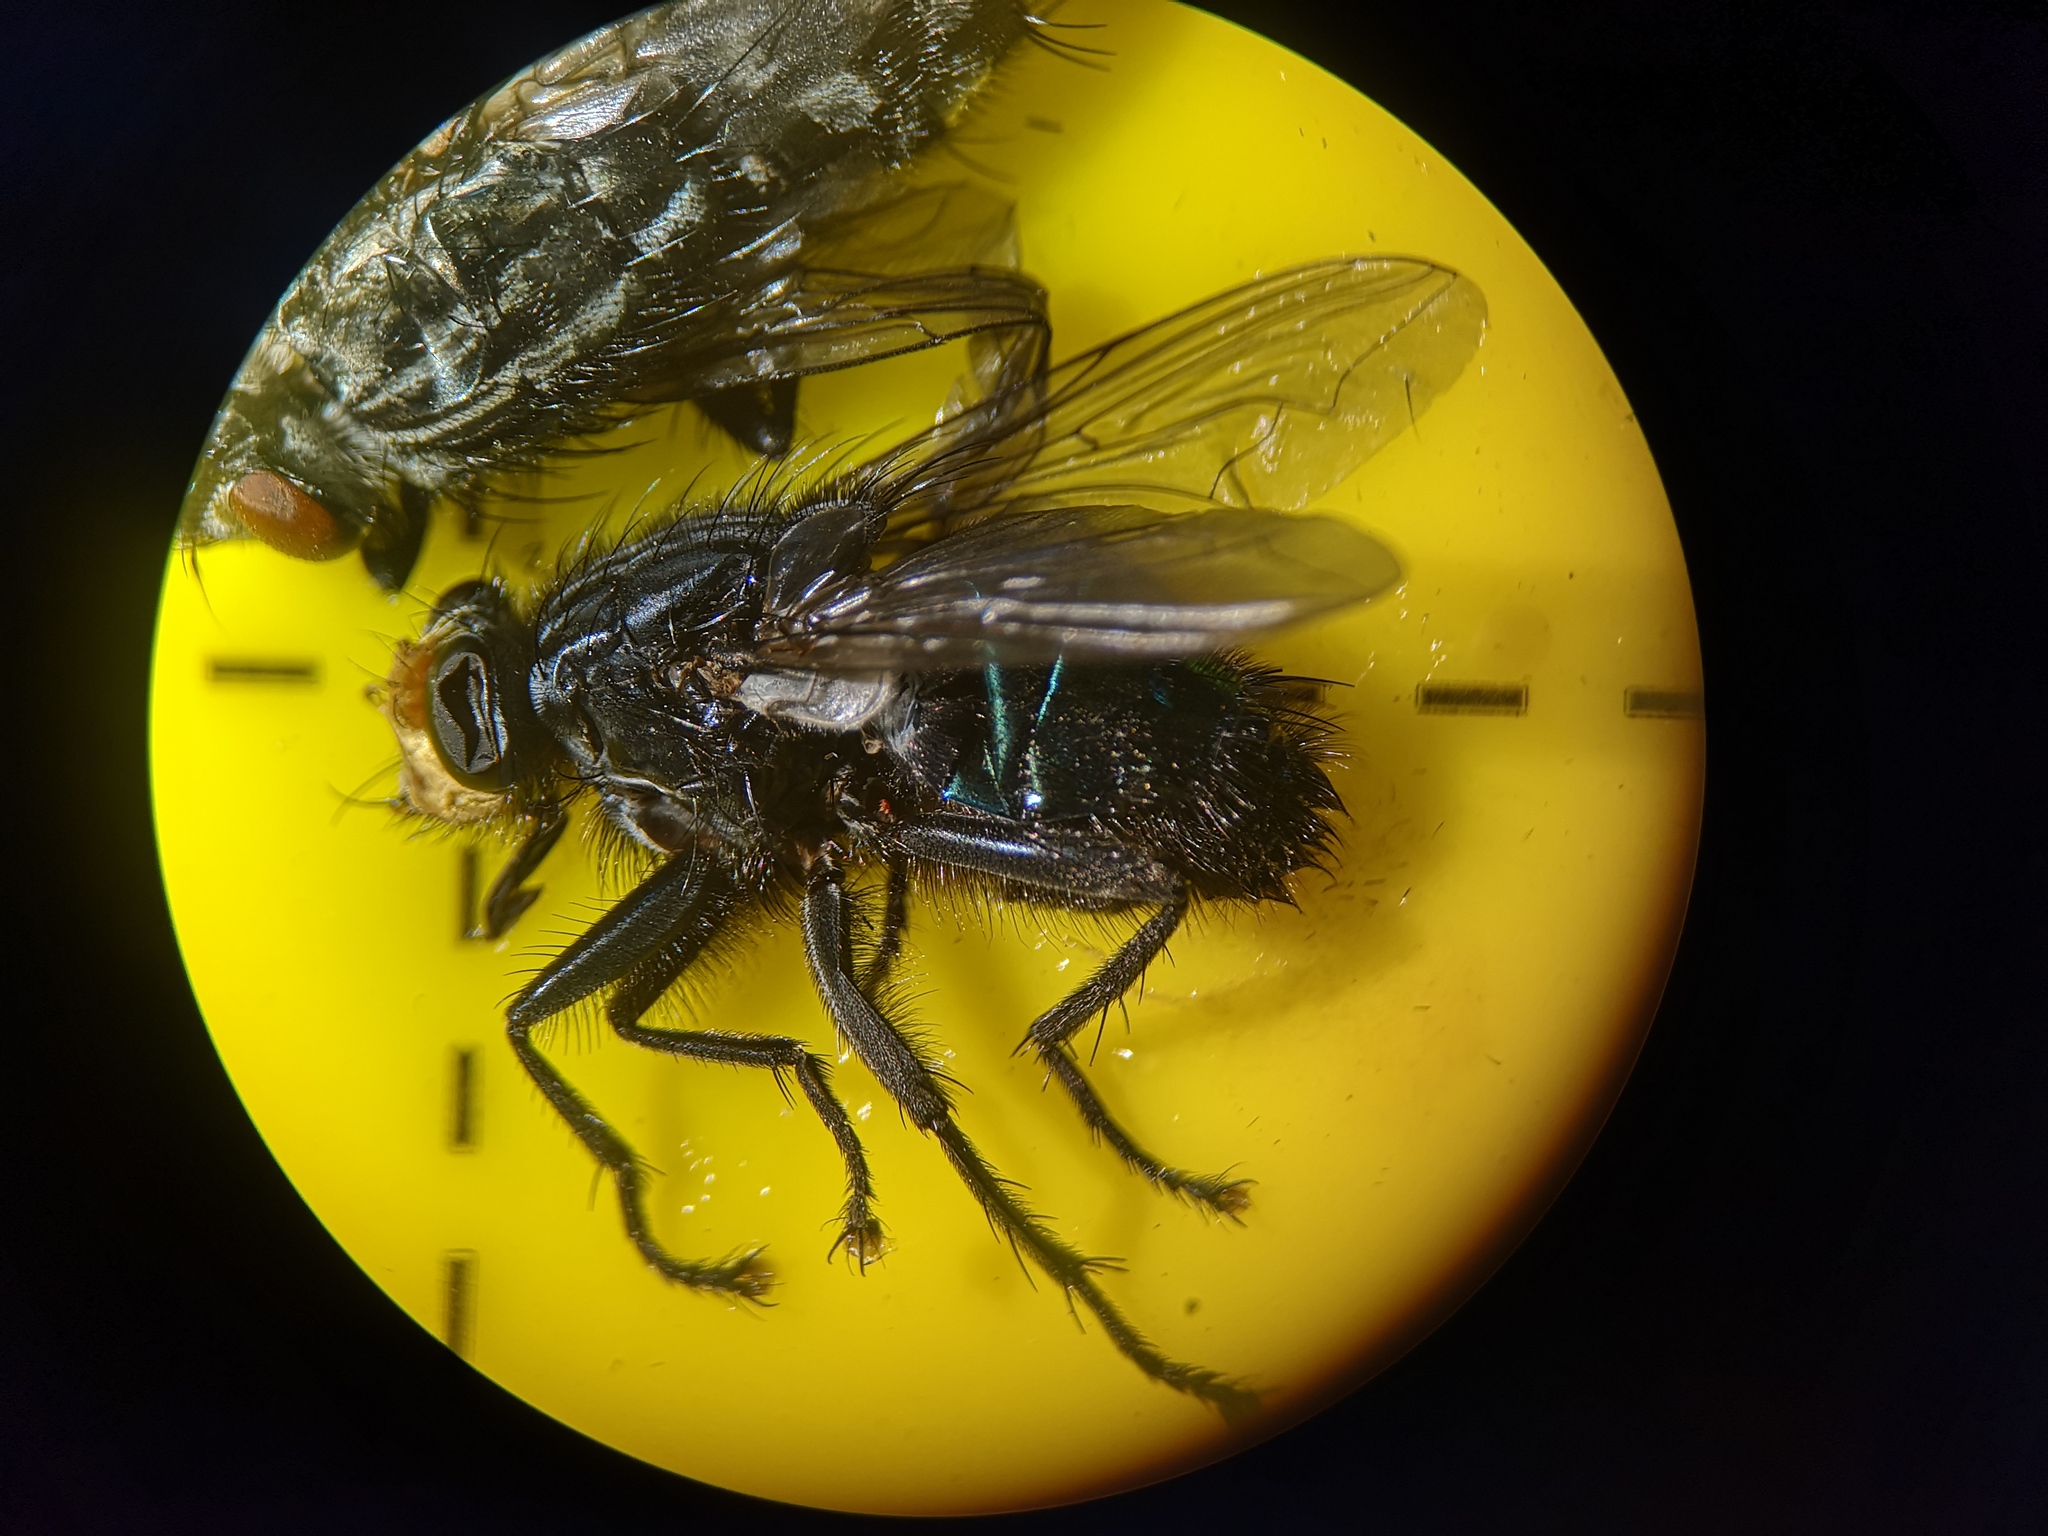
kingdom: Animalia
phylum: Arthropoda
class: Insecta
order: Diptera
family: Calliphoridae
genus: Cynomya
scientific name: Cynomya mortuorum
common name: Bluebottle blow fly
